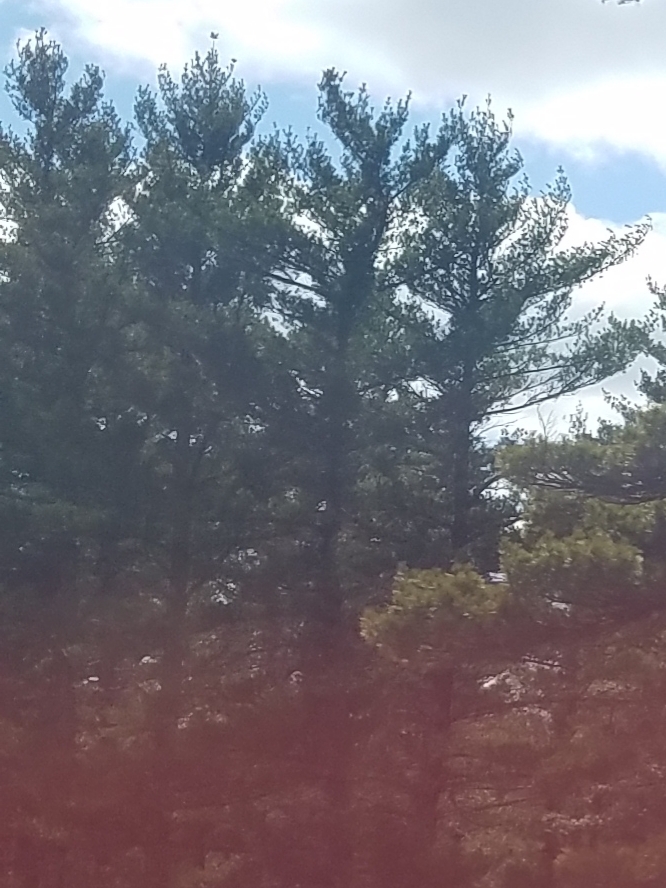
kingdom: Plantae
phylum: Tracheophyta
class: Pinopsida
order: Pinales
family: Pinaceae
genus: Pinus
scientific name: Pinus strobus
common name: Weymouth pine
